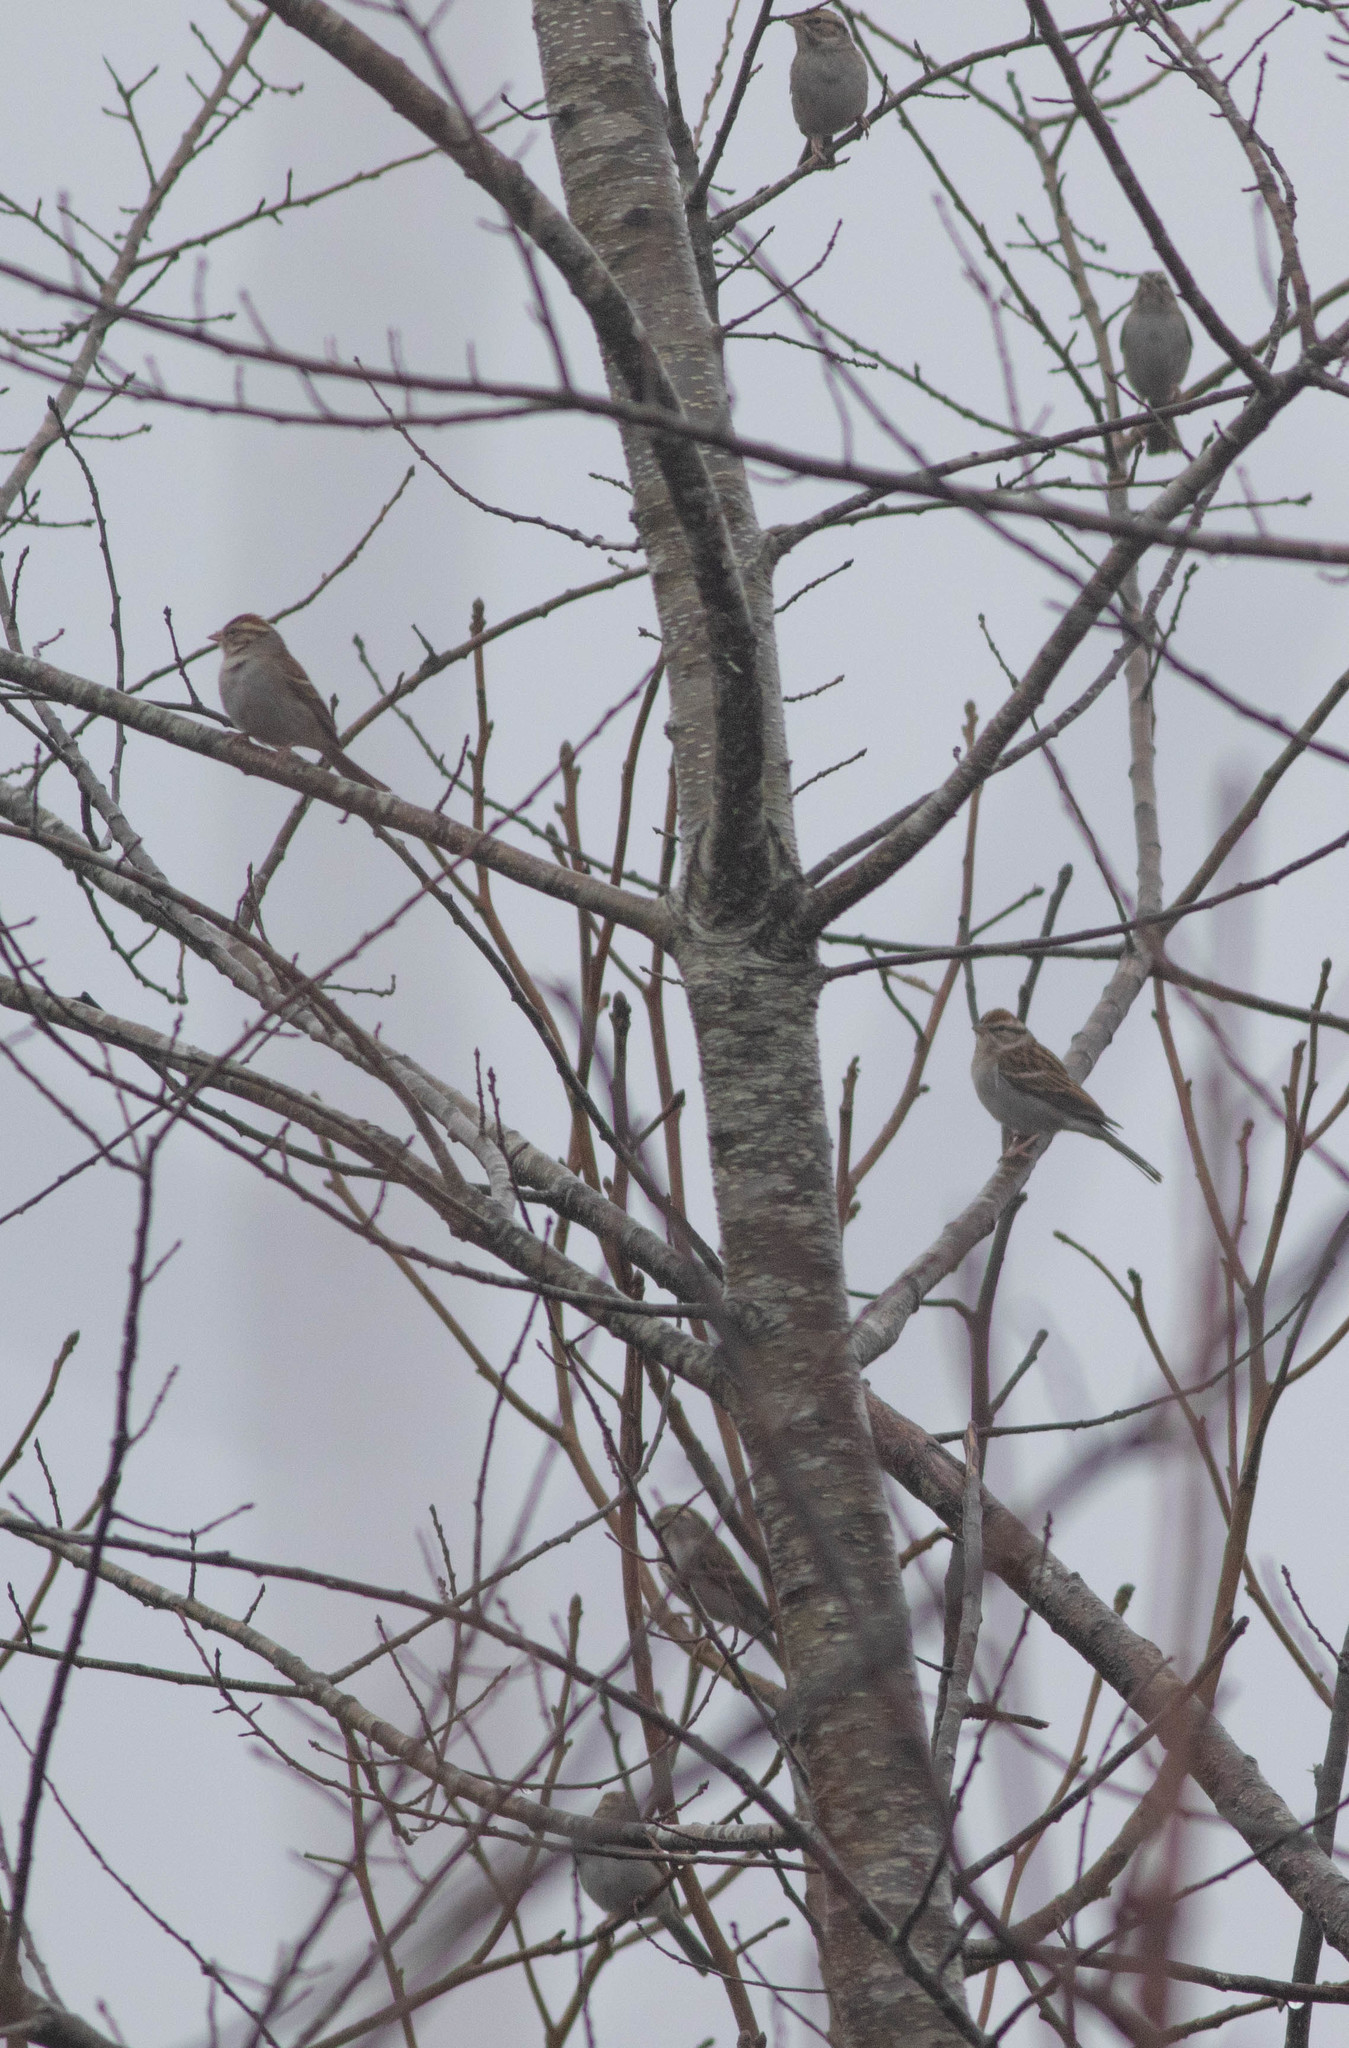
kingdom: Animalia
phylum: Chordata
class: Aves
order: Passeriformes
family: Passerellidae
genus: Spizella
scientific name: Spizella passerina
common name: Chipping sparrow
